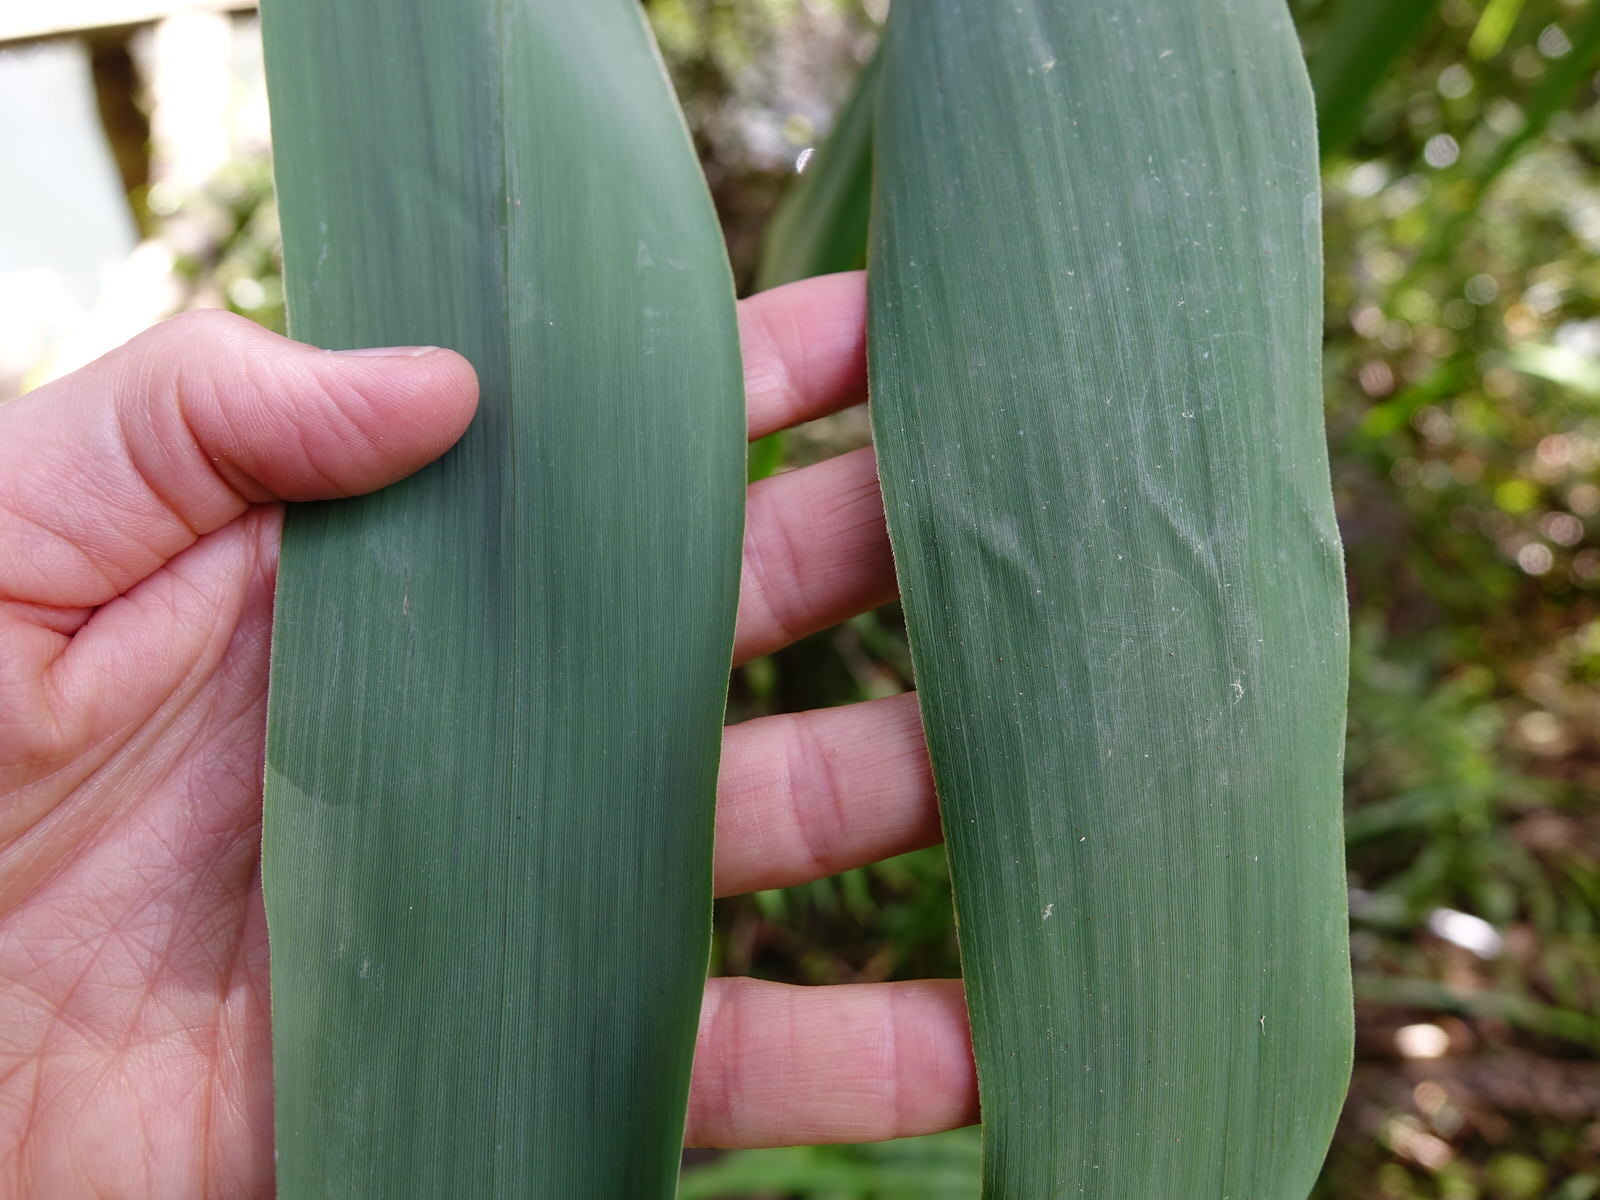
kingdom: Plantae
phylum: Tracheophyta
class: Liliopsida
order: Poales
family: Poaceae
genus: Arundo
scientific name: Arundo donax
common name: Giant reed
